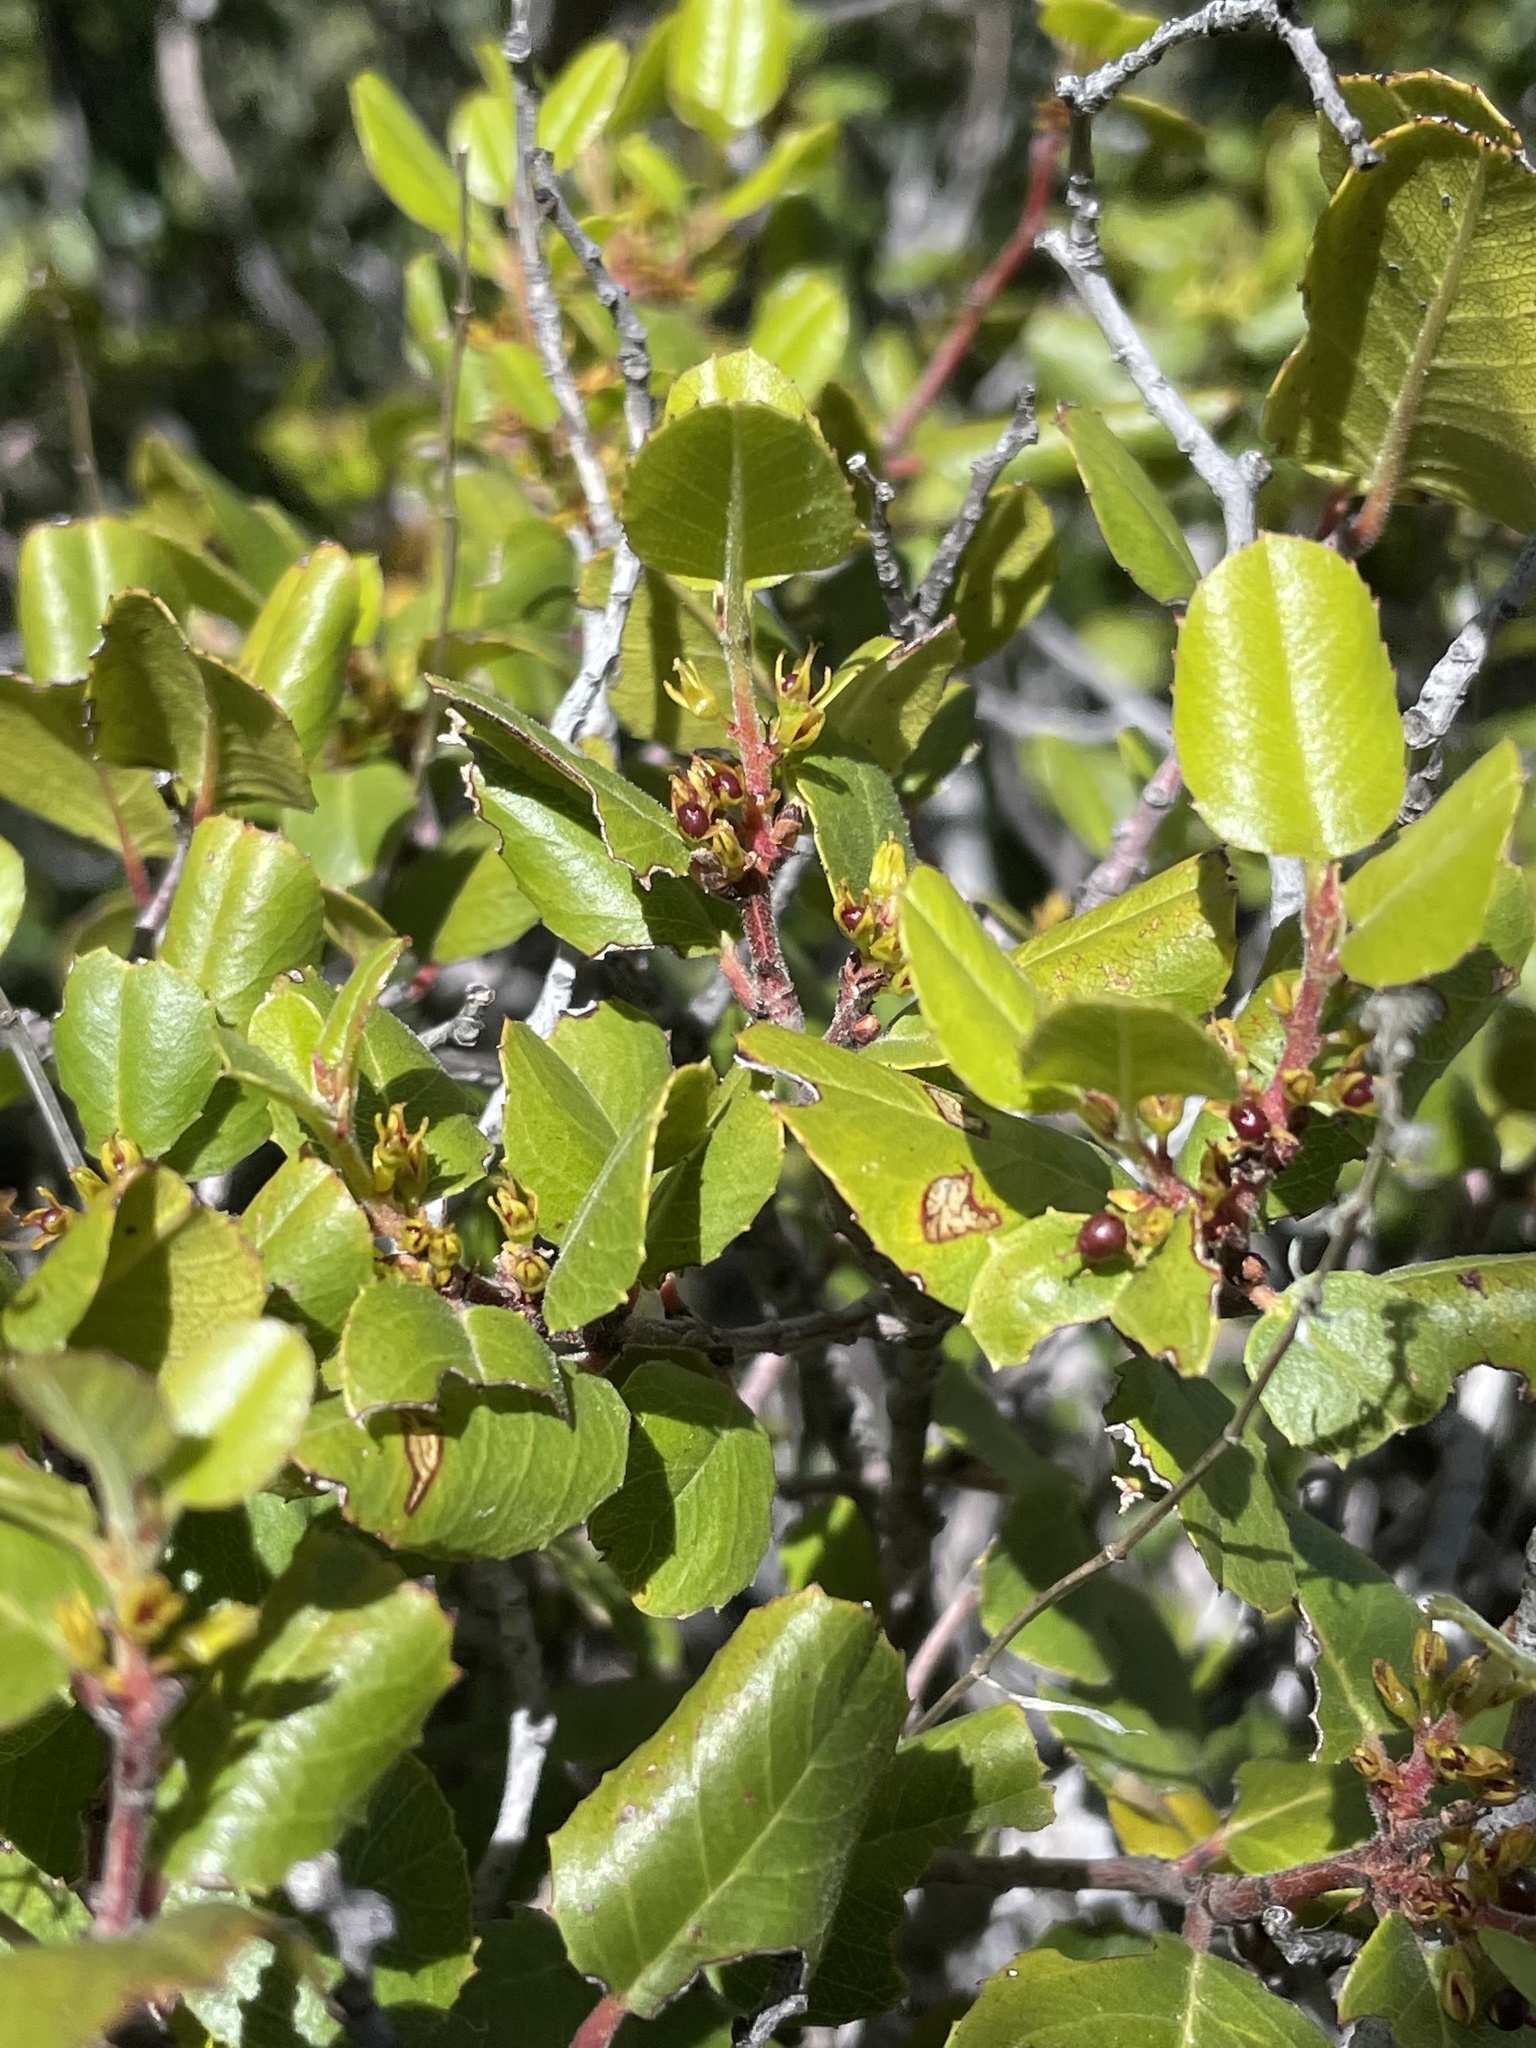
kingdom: Plantae
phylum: Tracheophyta
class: Magnoliopsida
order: Rosales
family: Rhamnaceae
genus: Endotropis
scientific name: Endotropis crocea
